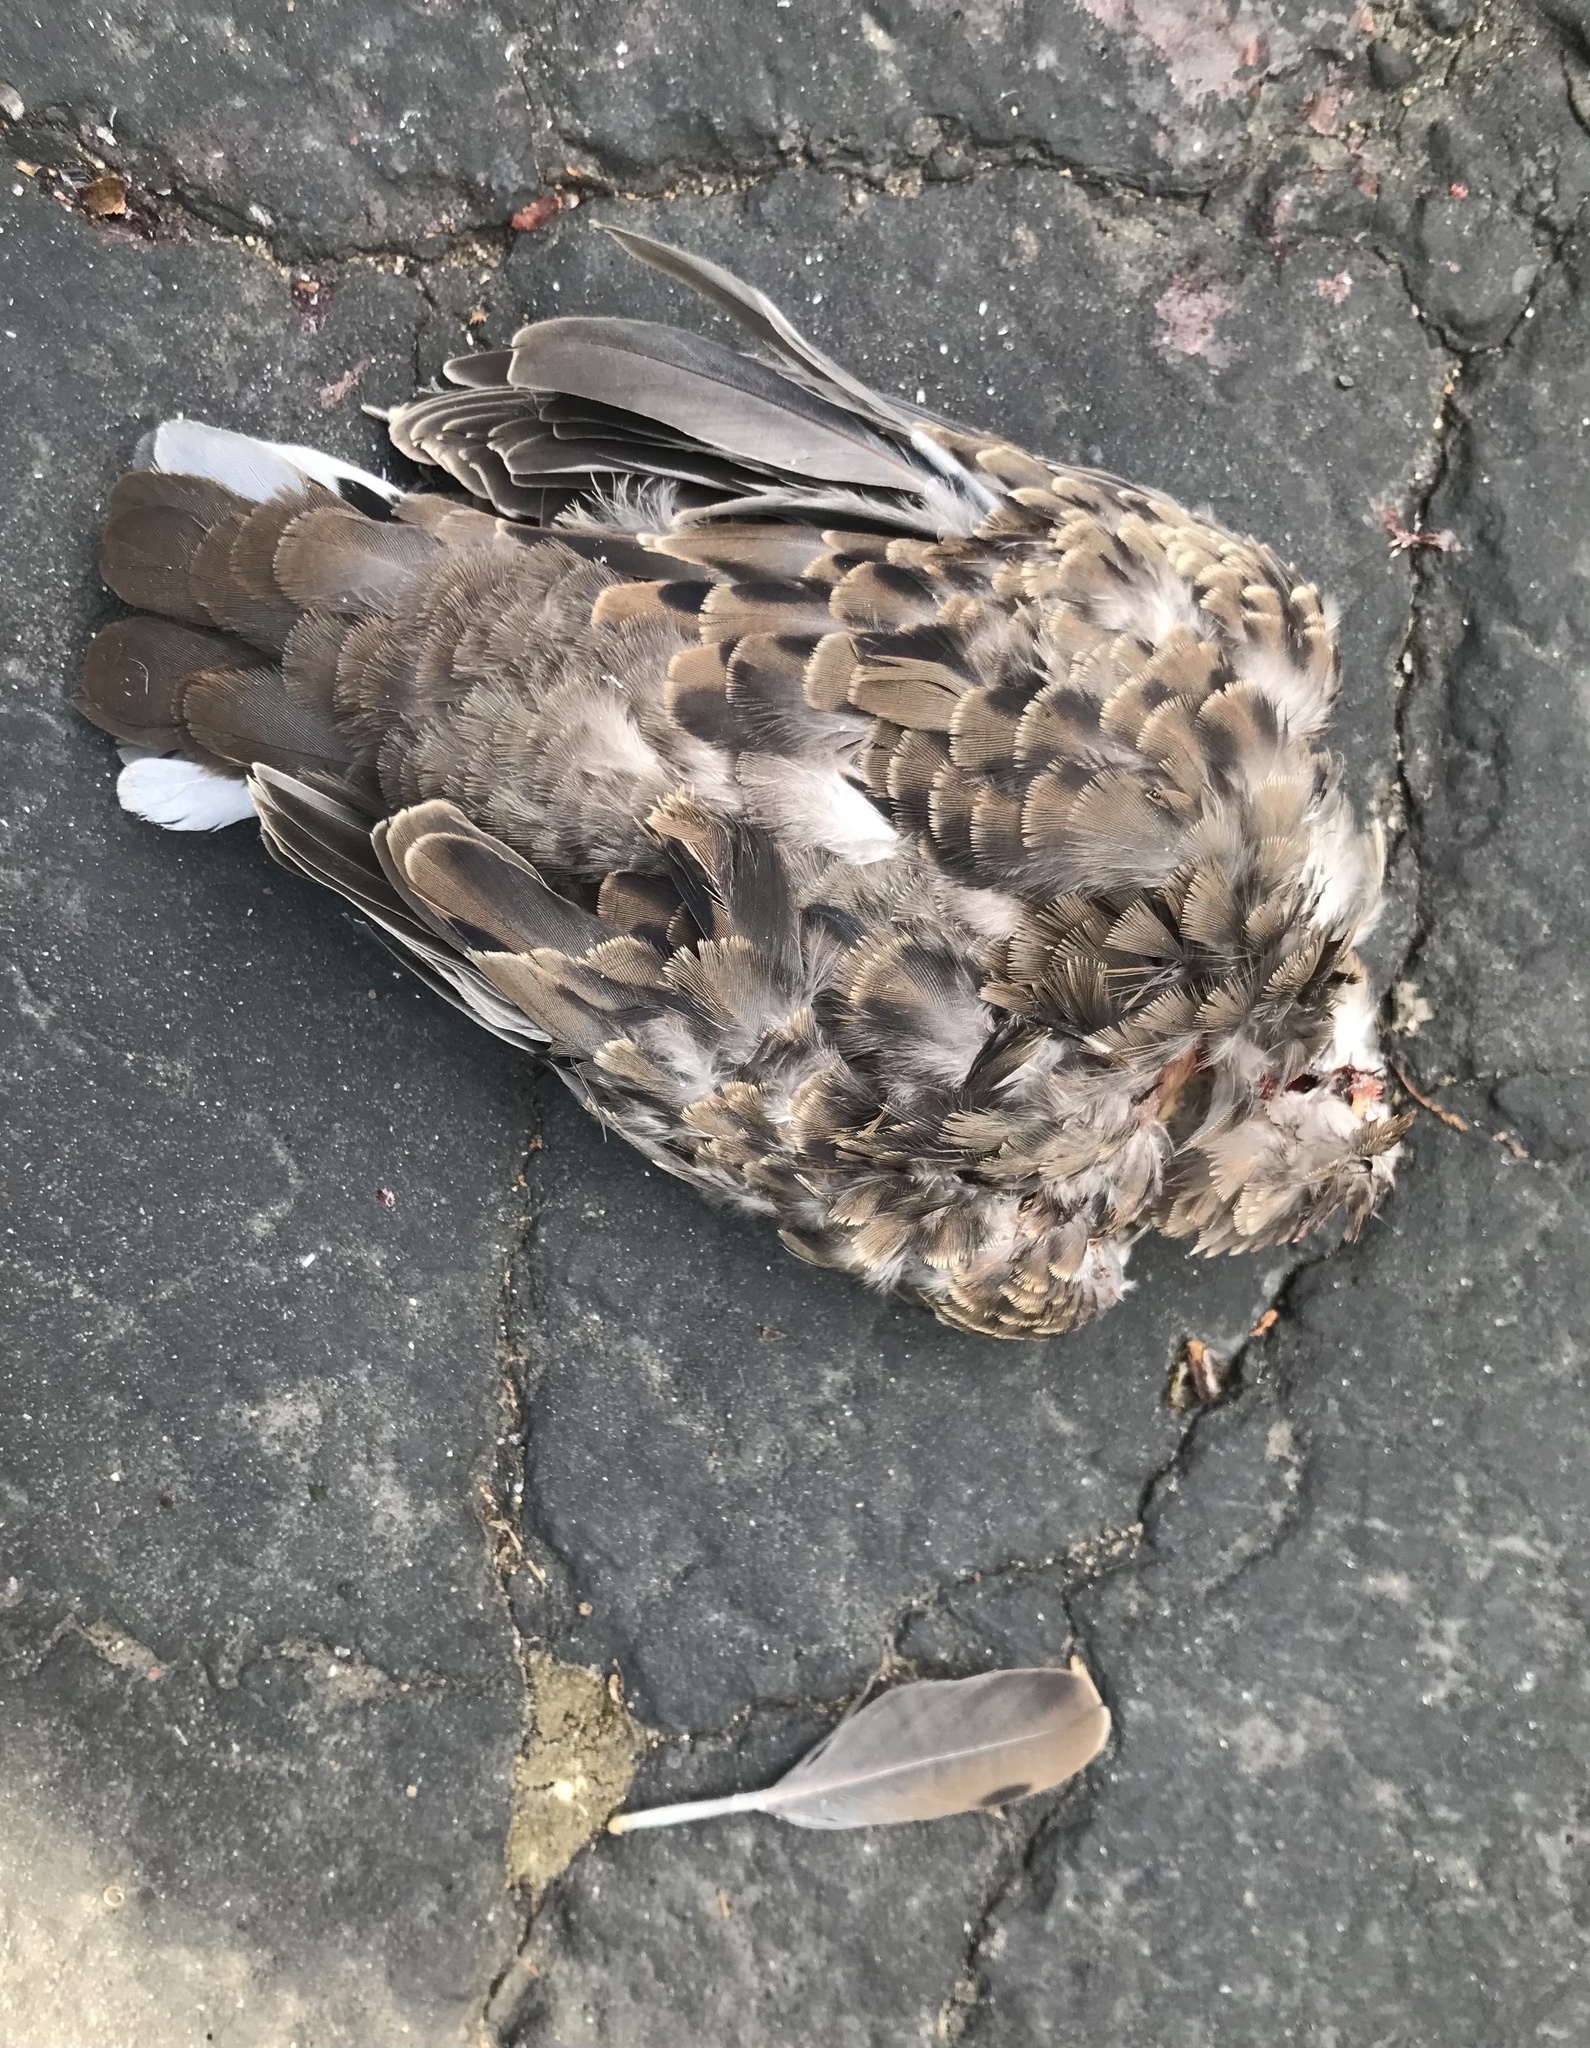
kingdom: Animalia
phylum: Chordata
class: Aves
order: Columbiformes
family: Columbidae
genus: Zenaida
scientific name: Zenaida macroura
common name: Mourning dove
